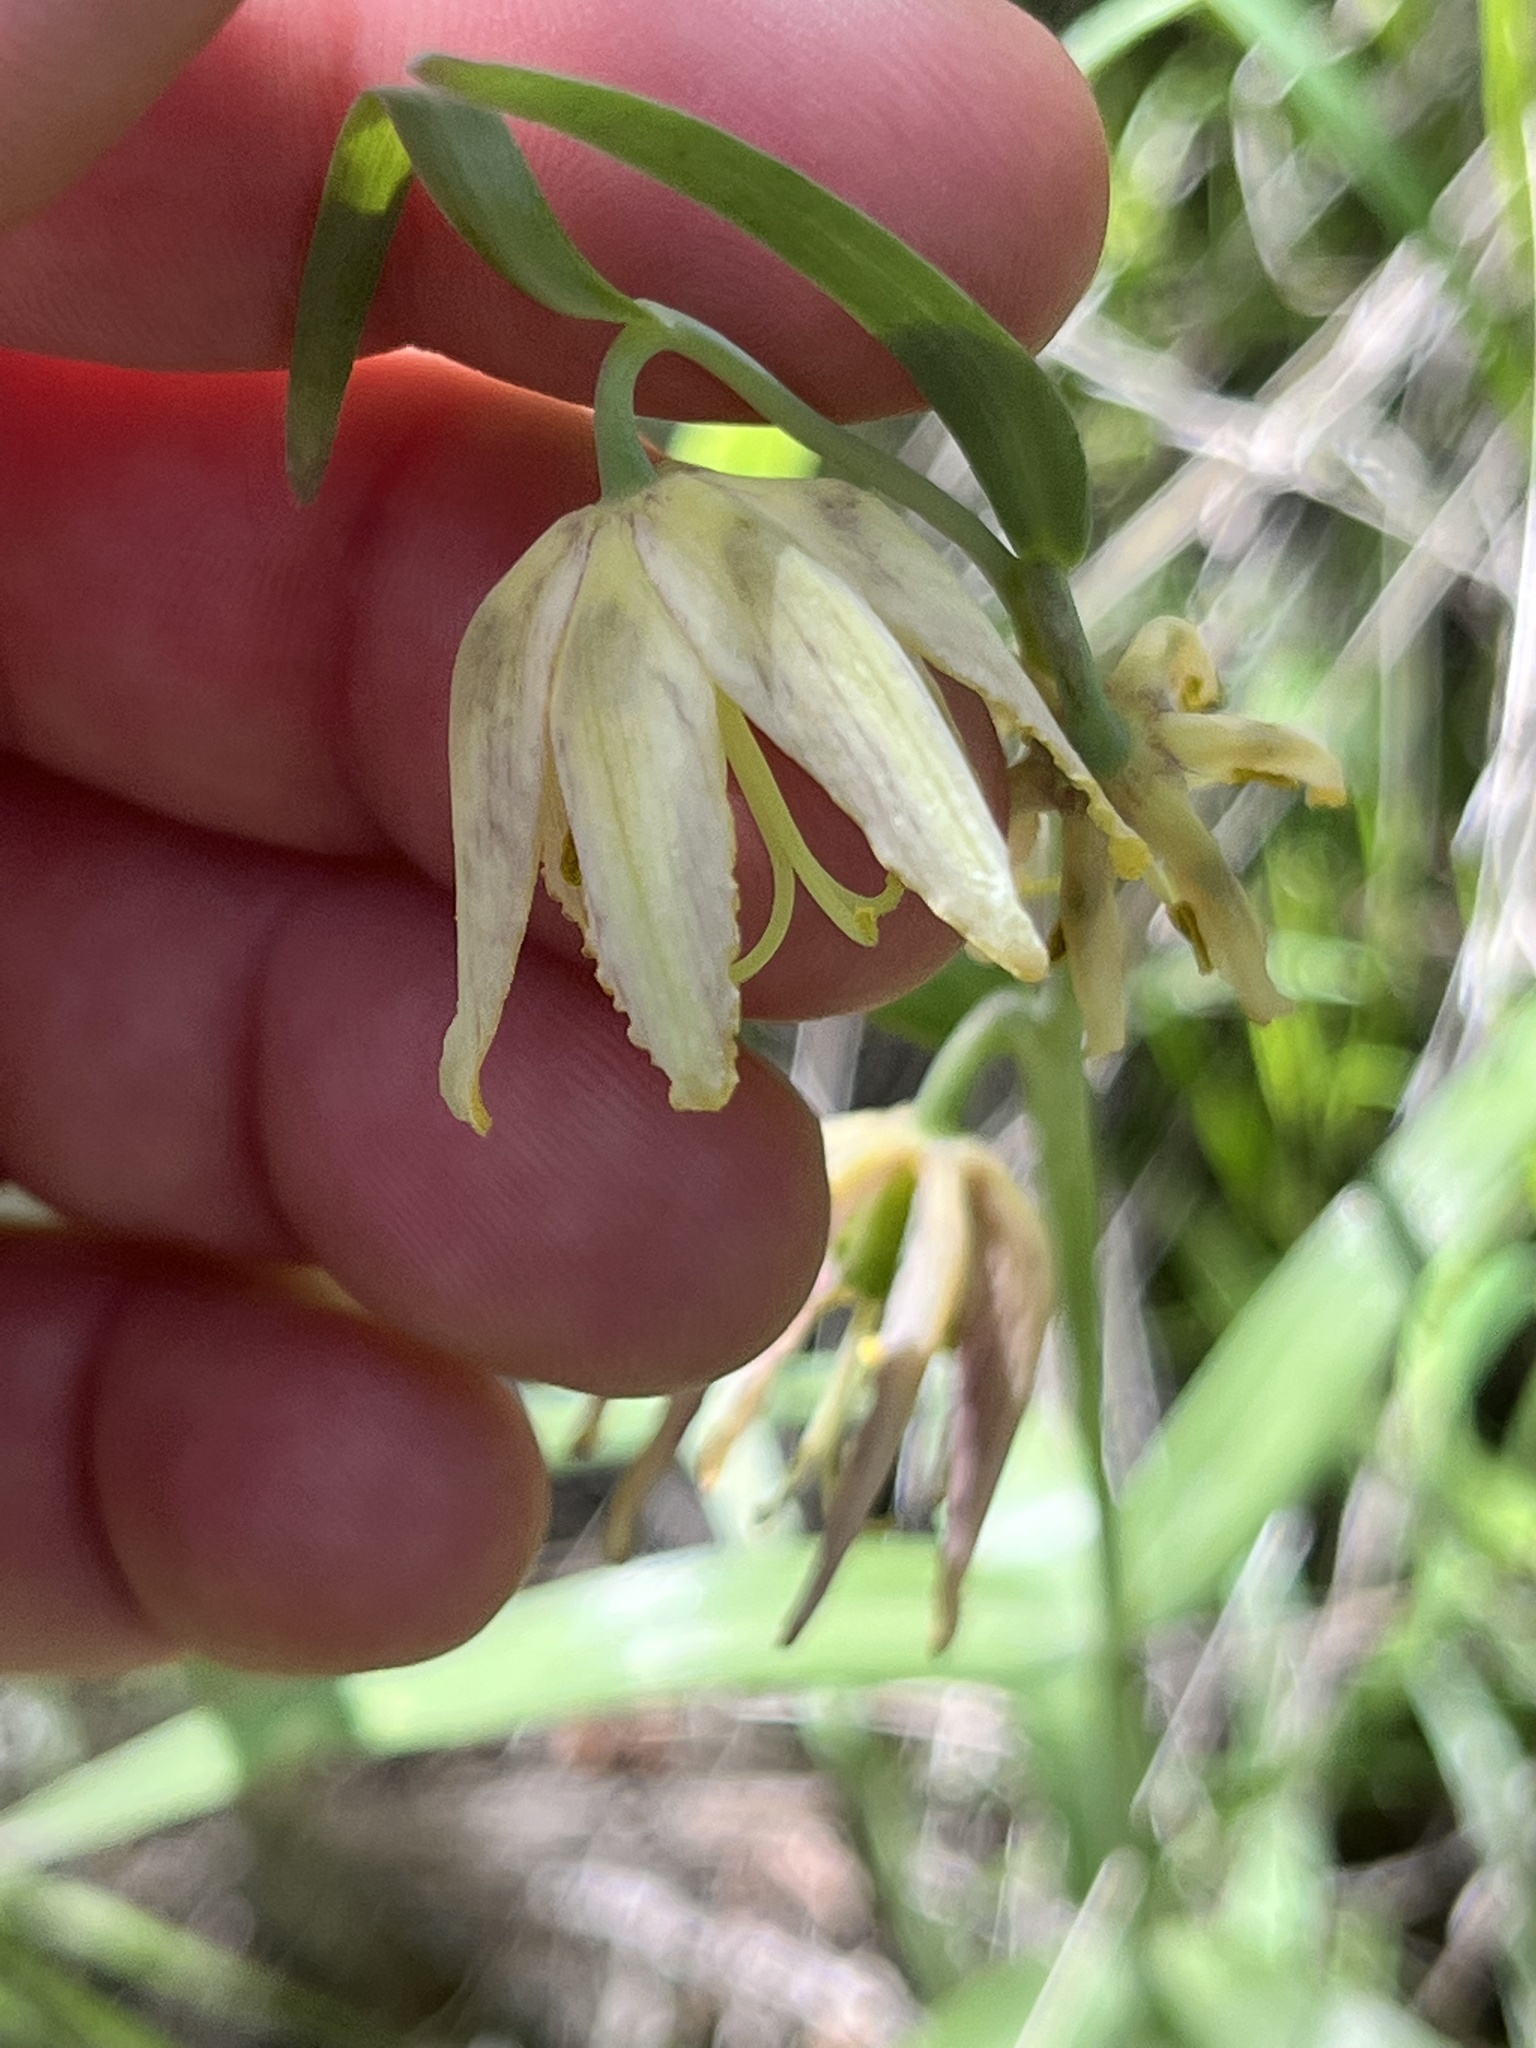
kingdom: Plantae
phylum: Tracheophyta
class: Liliopsida
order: Liliales
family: Liliaceae
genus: Fritillaria
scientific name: Fritillaria affinis
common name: Ojai fritillary
